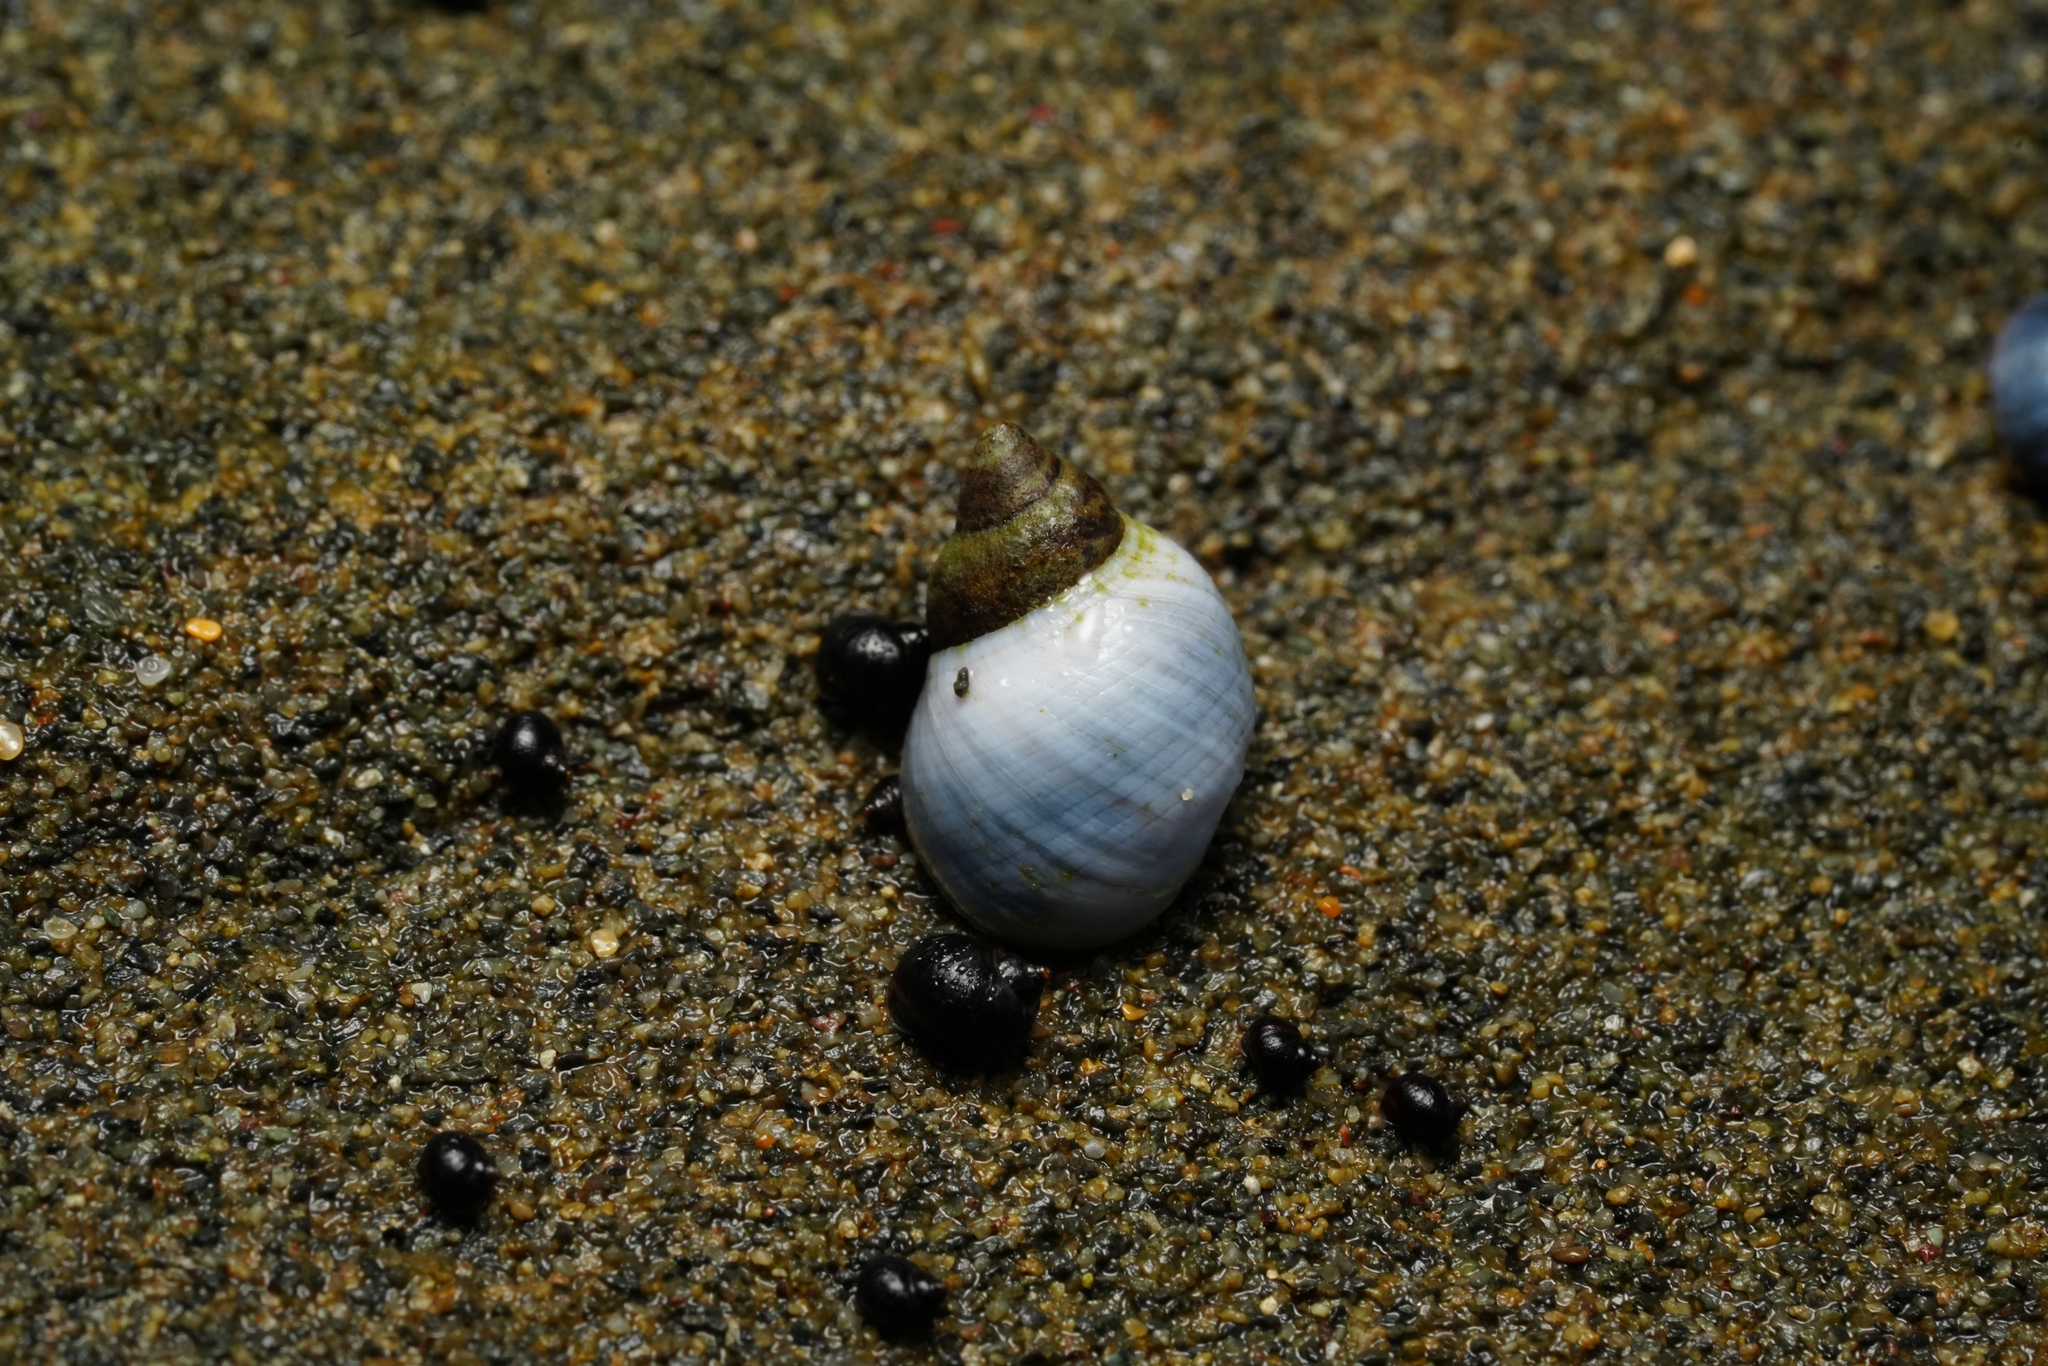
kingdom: Animalia
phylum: Mollusca
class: Gastropoda
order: Littorinimorpha
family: Littorinidae
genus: Austrolittorina
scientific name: Austrolittorina unifasciata
